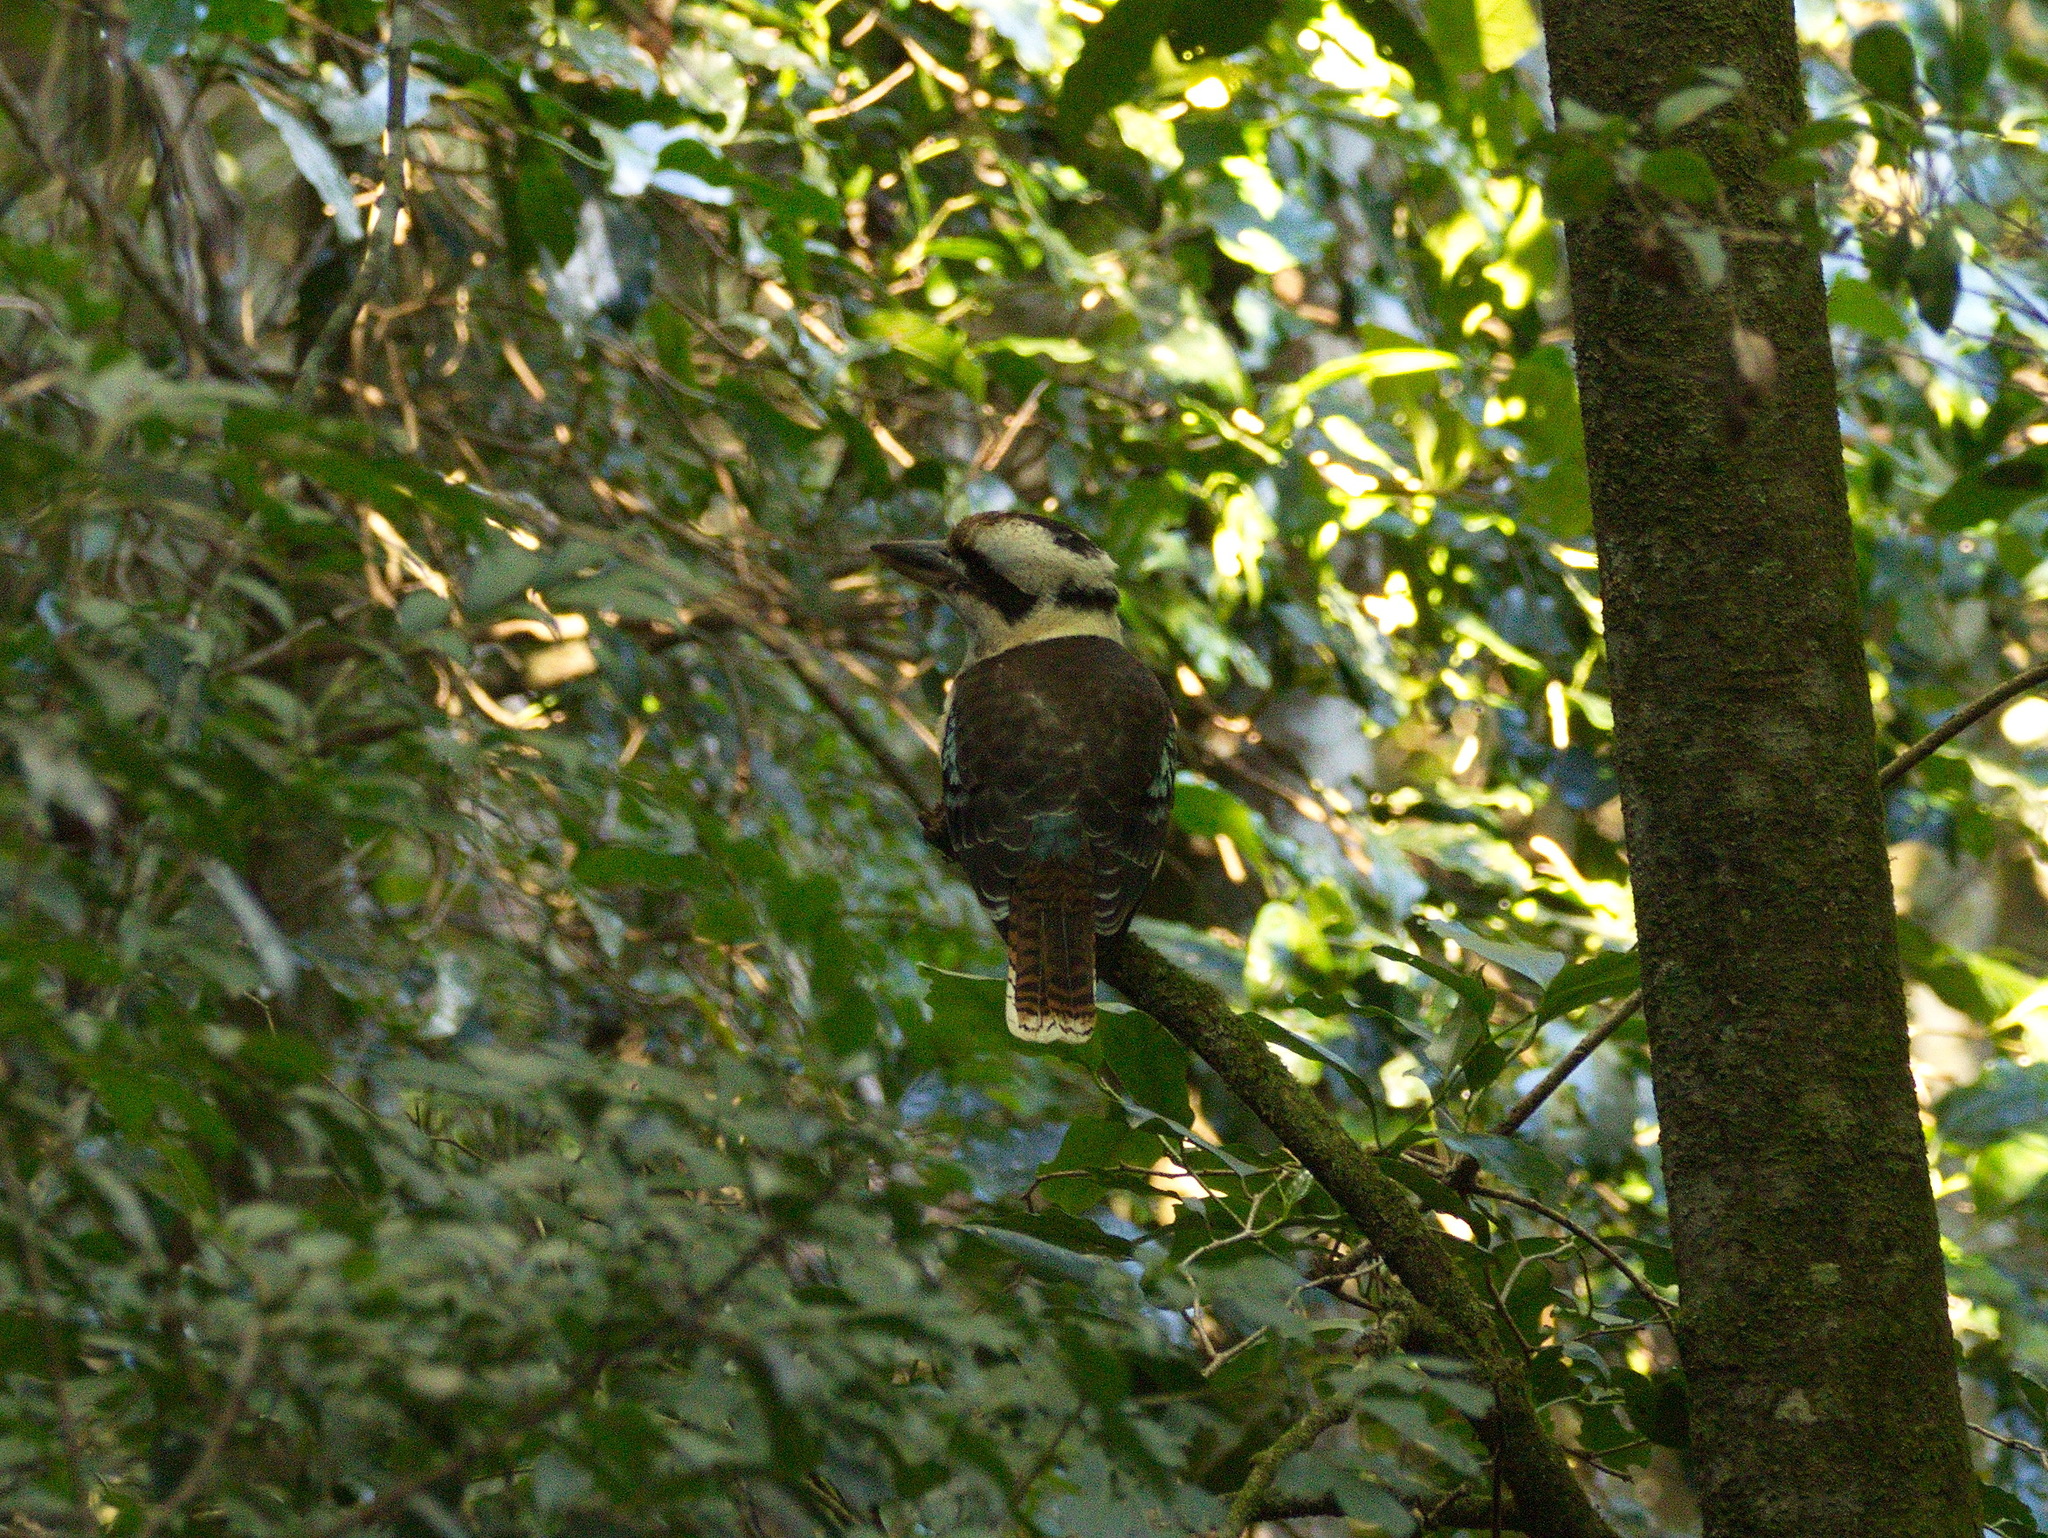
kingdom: Animalia
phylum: Chordata
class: Aves
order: Coraciiformes
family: Alcedinidae
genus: Dacelo
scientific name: Dacelo novaeguineae
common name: Laughing kookaburra
